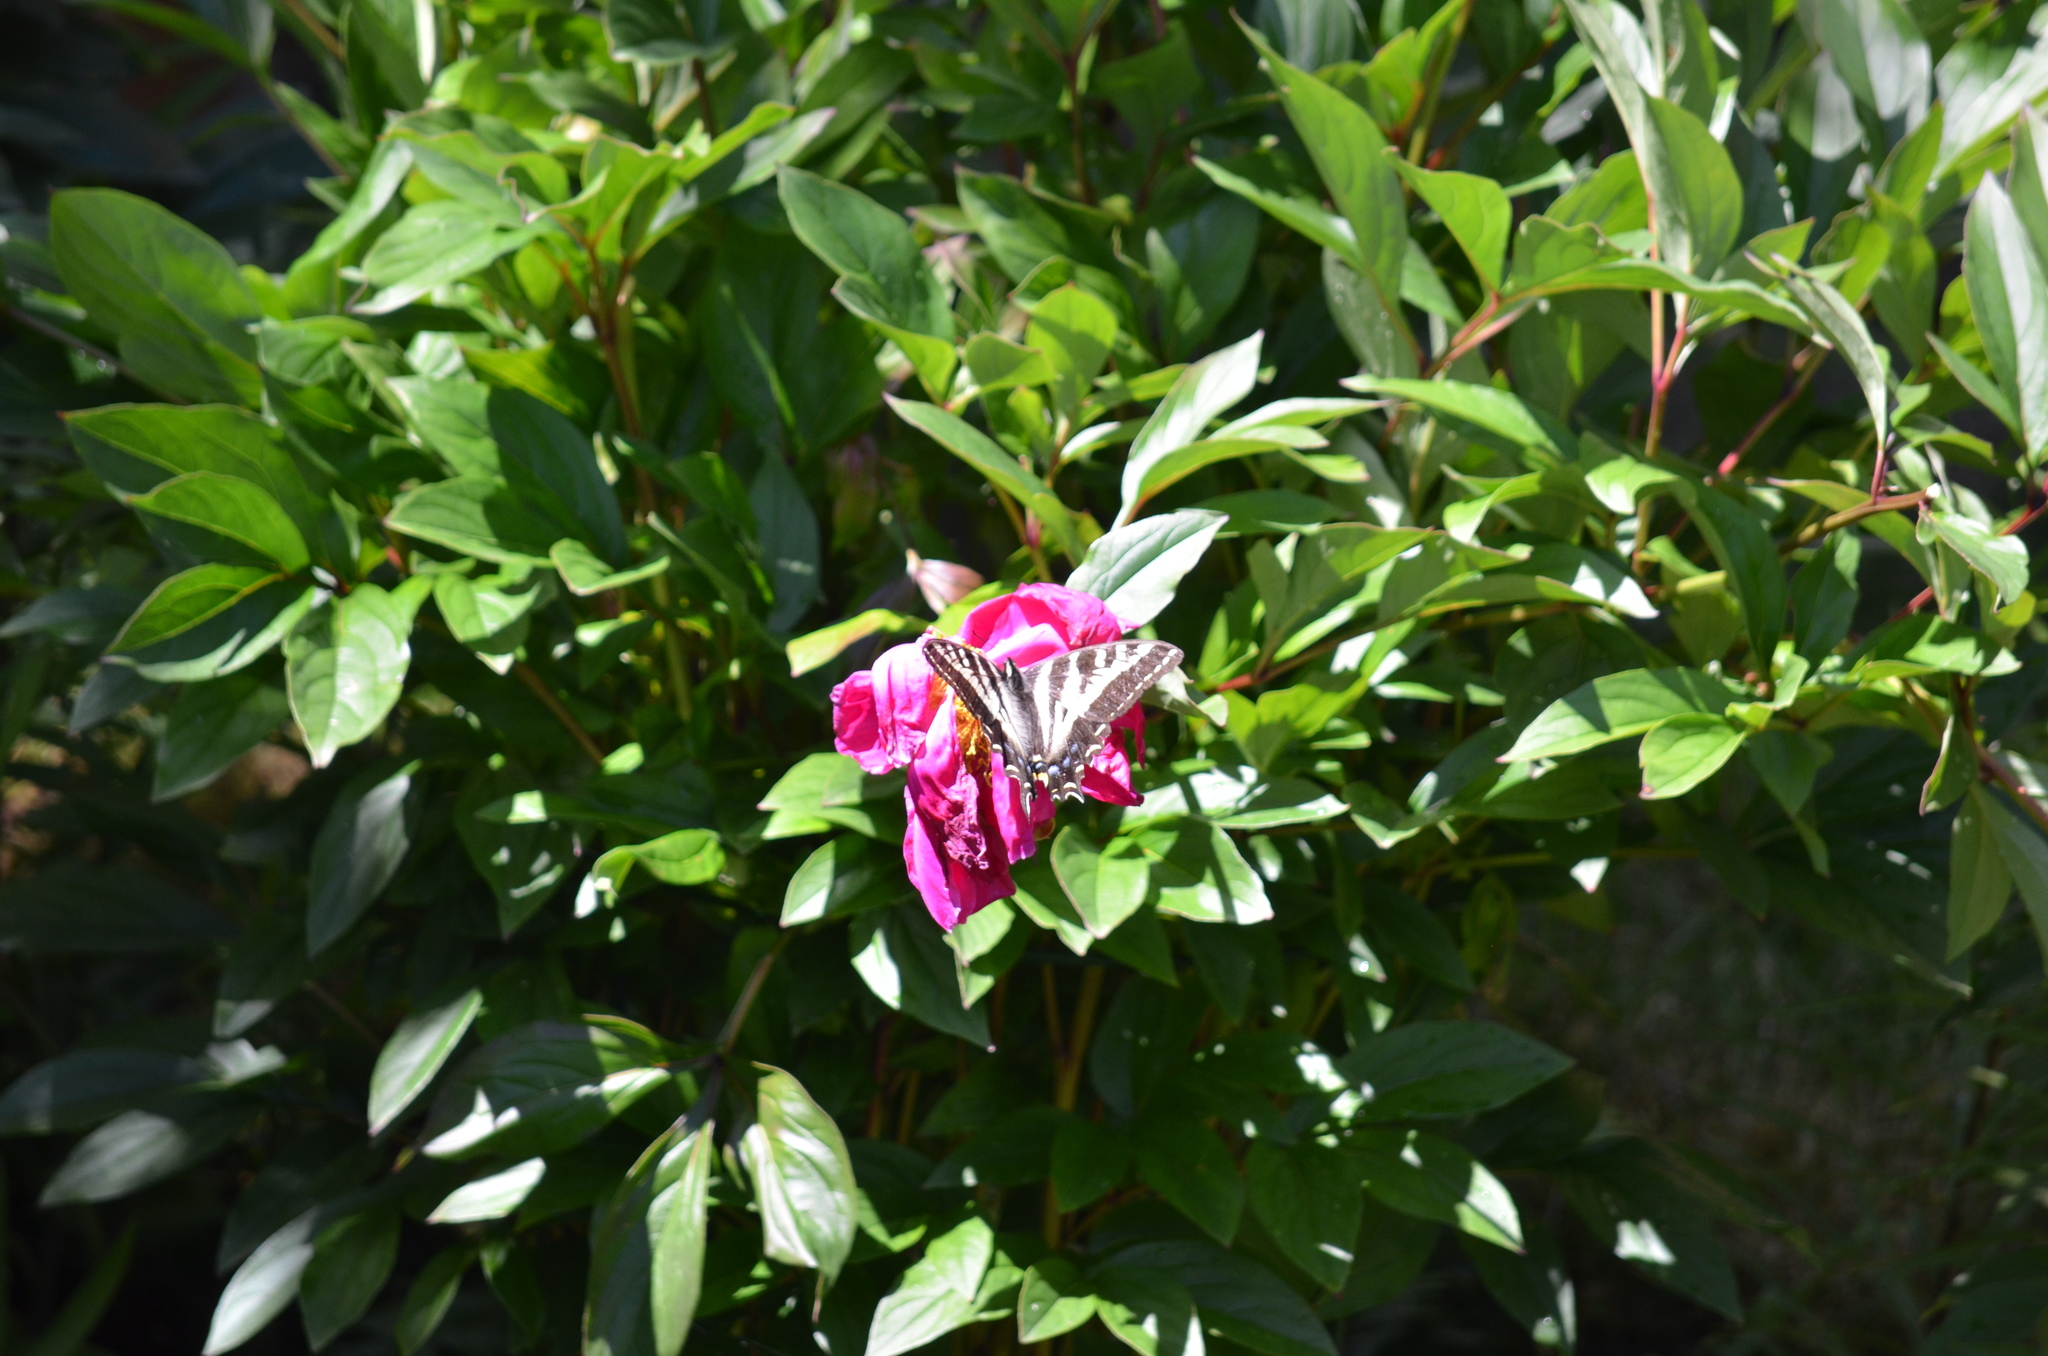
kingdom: Animalia
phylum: Arthropoda
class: Insecta
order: Lepidoptera
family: Papilionidae
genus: Papilio
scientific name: Papilio eurymedon
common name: Pale tiger swallowtail
